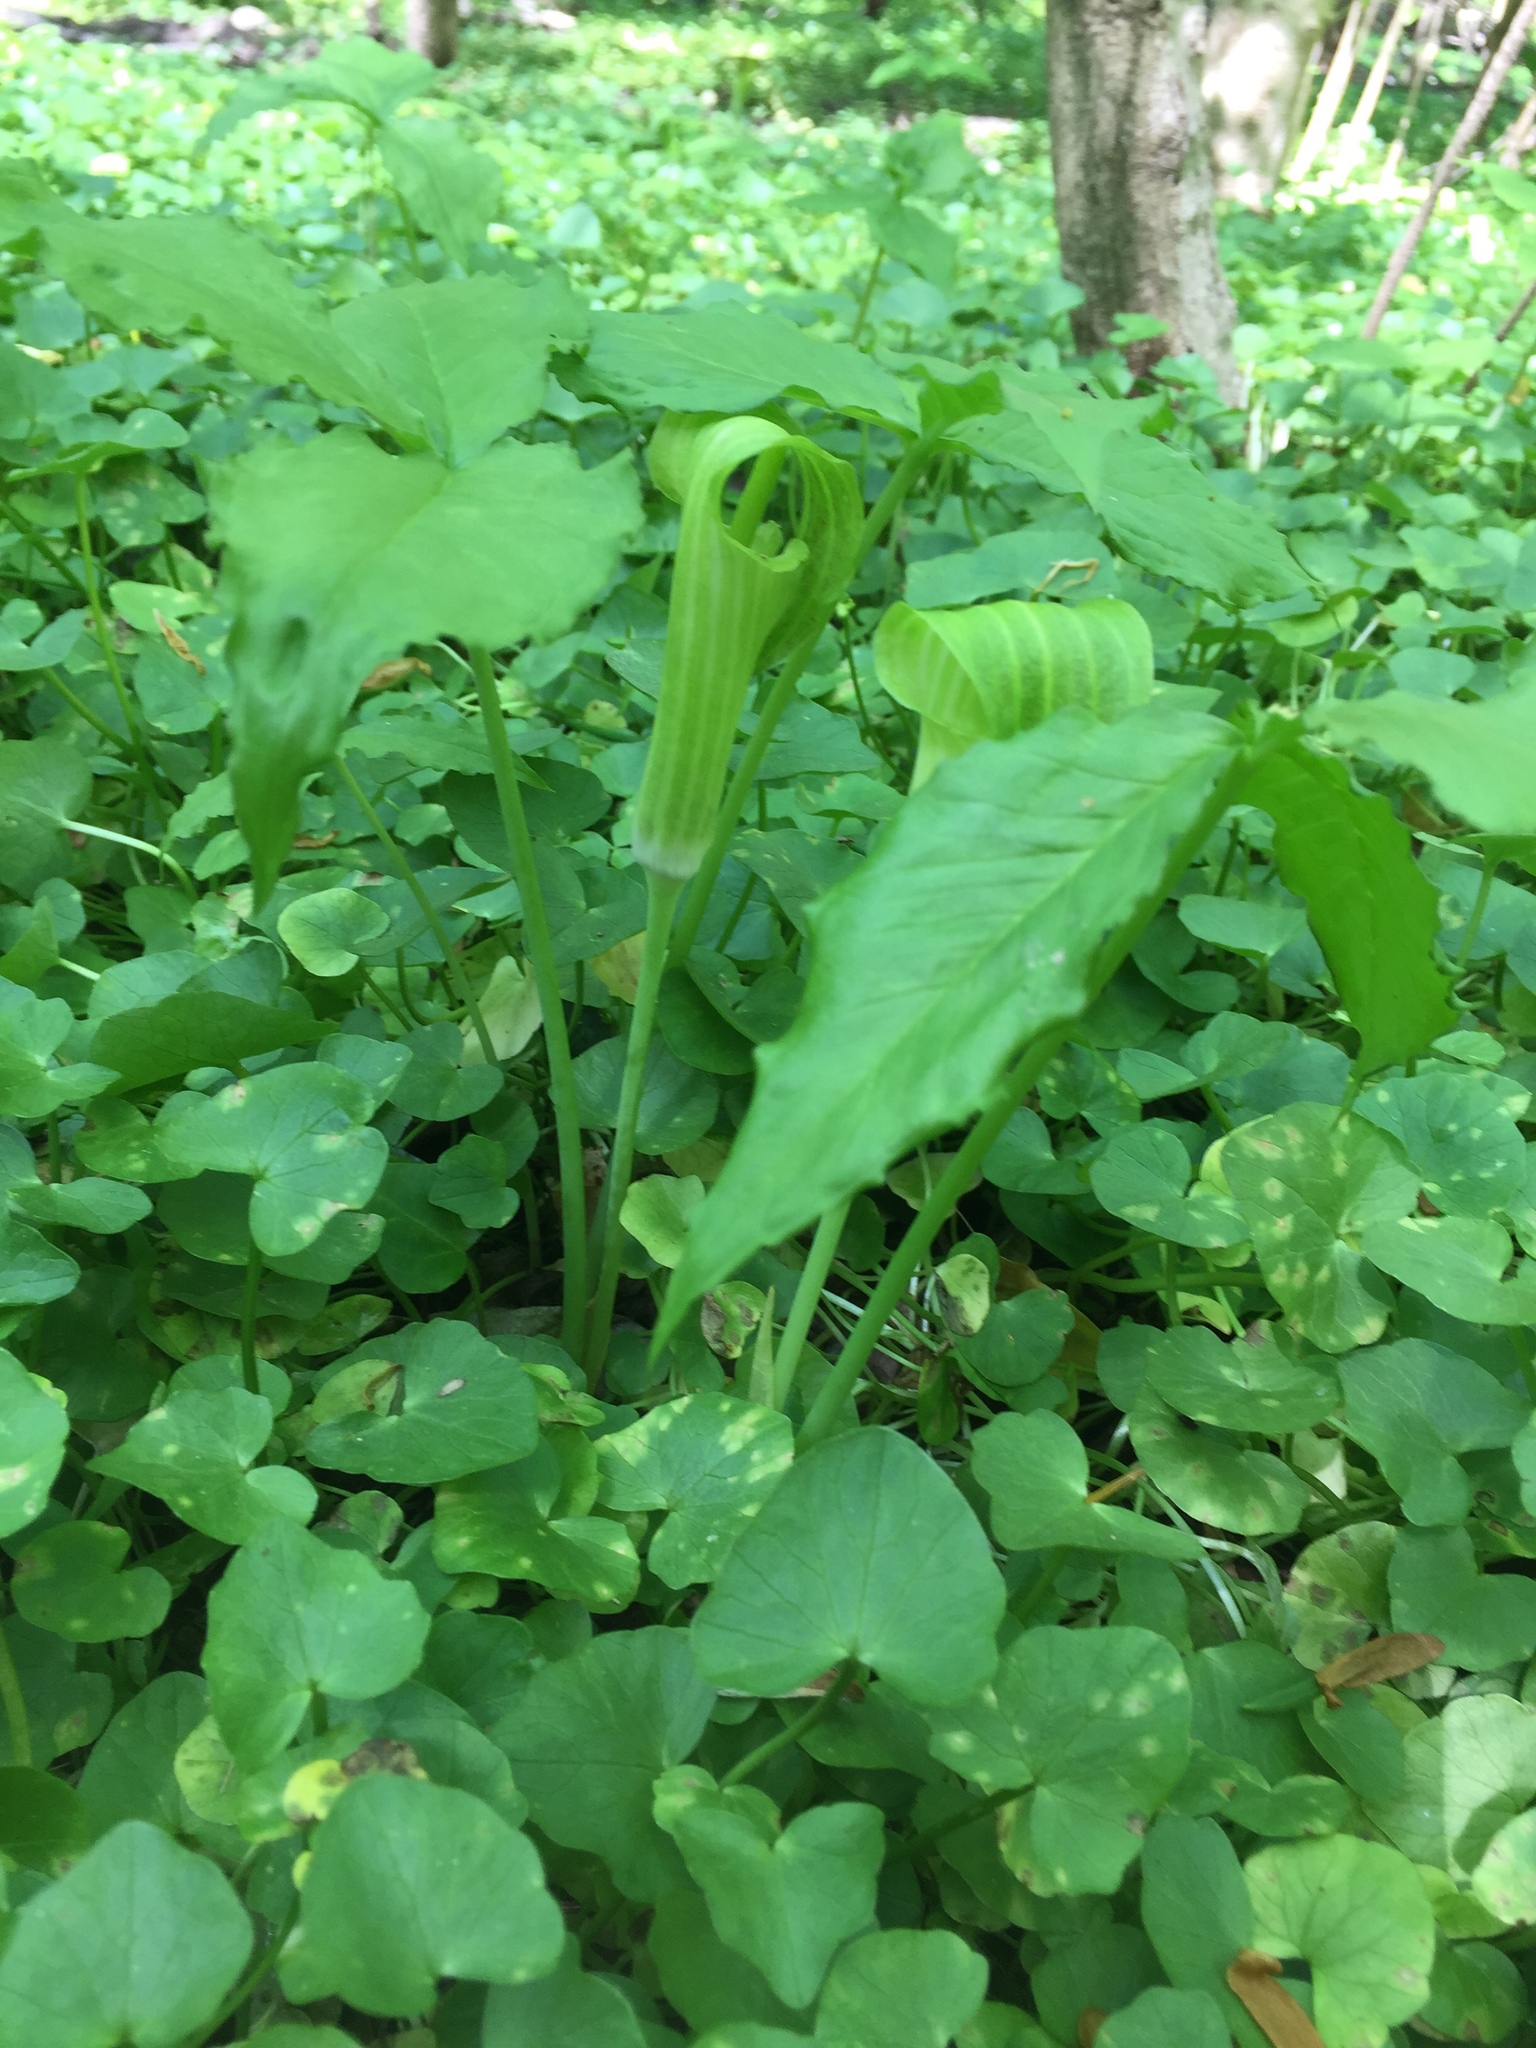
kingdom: Plantae
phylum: Tracheophyta
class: Liliopsida
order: Alismatales
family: Araceae
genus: Arisaema
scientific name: Arisaema triphyllum
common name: Jack-in-the-pulpit
